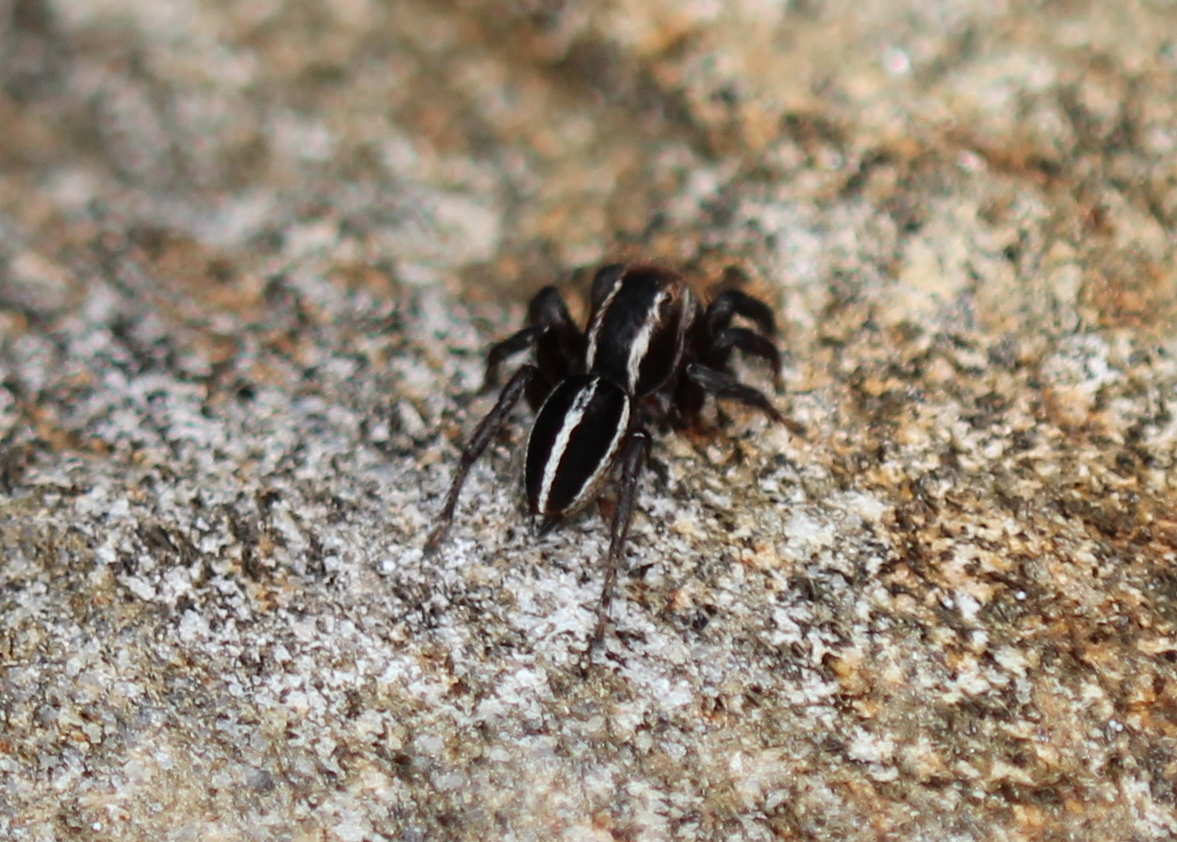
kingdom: Animalia
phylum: Arthropoda
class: Arachnida
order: Araneae
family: Salticidae
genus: Phlegra
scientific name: Phlegra hentzi
